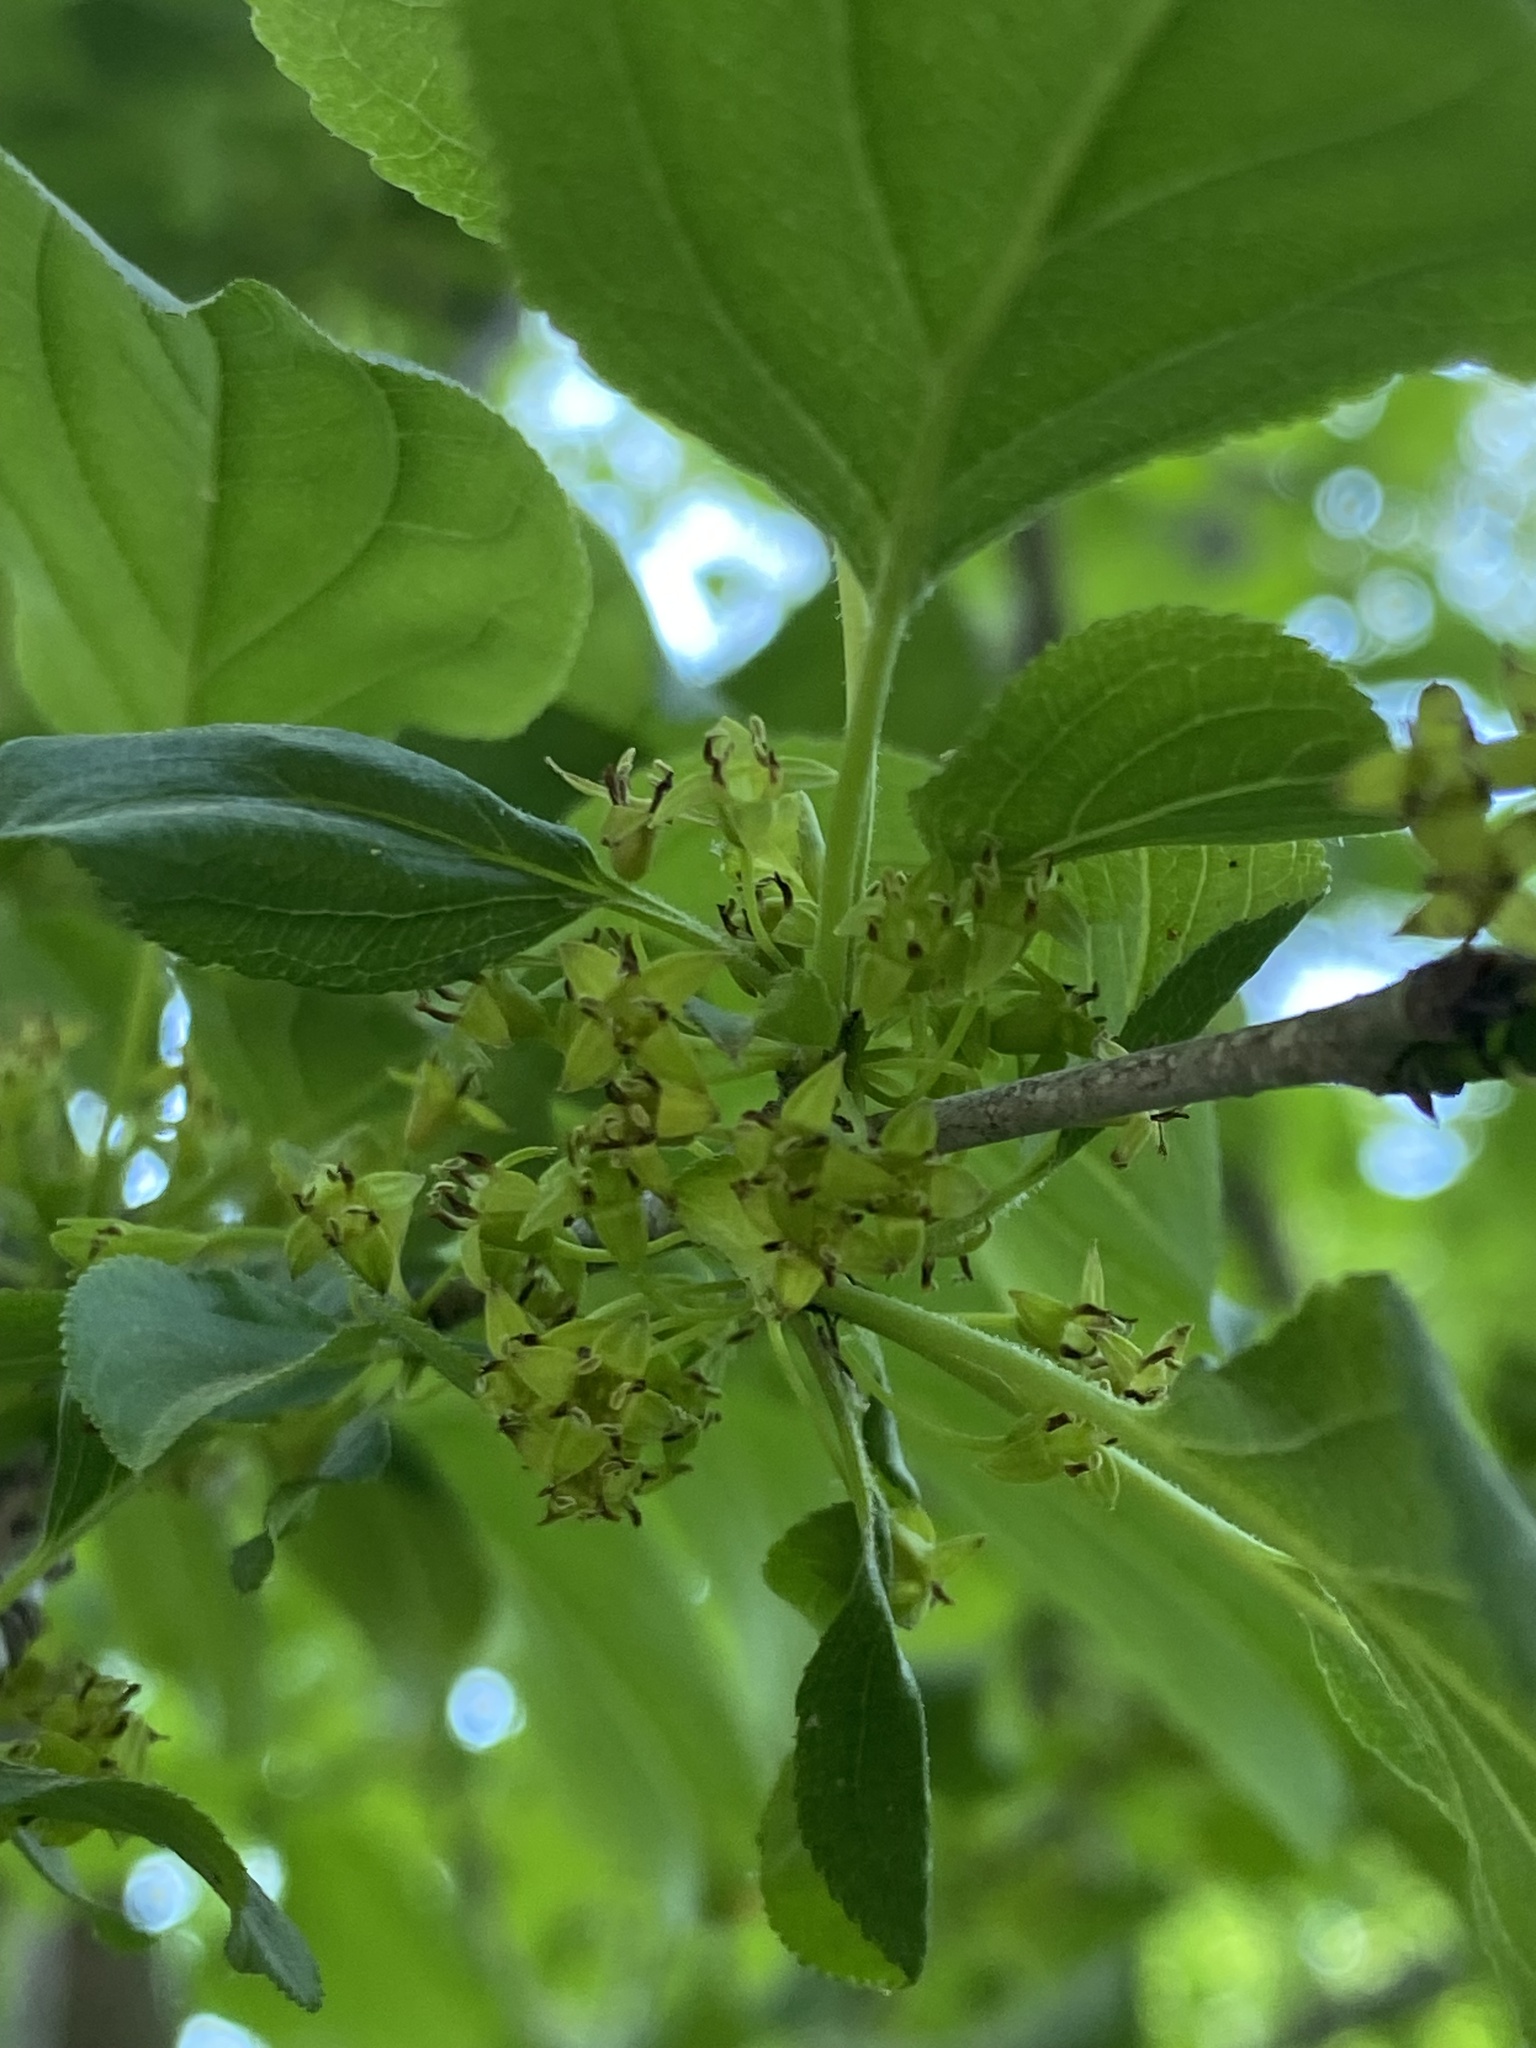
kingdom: Plantae
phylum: Tracheophyta
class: Magnoliopsida
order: Rosales
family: Rhamnaceae
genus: Rhamnus
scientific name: Rhamnus cathartica
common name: Common buckthorn
